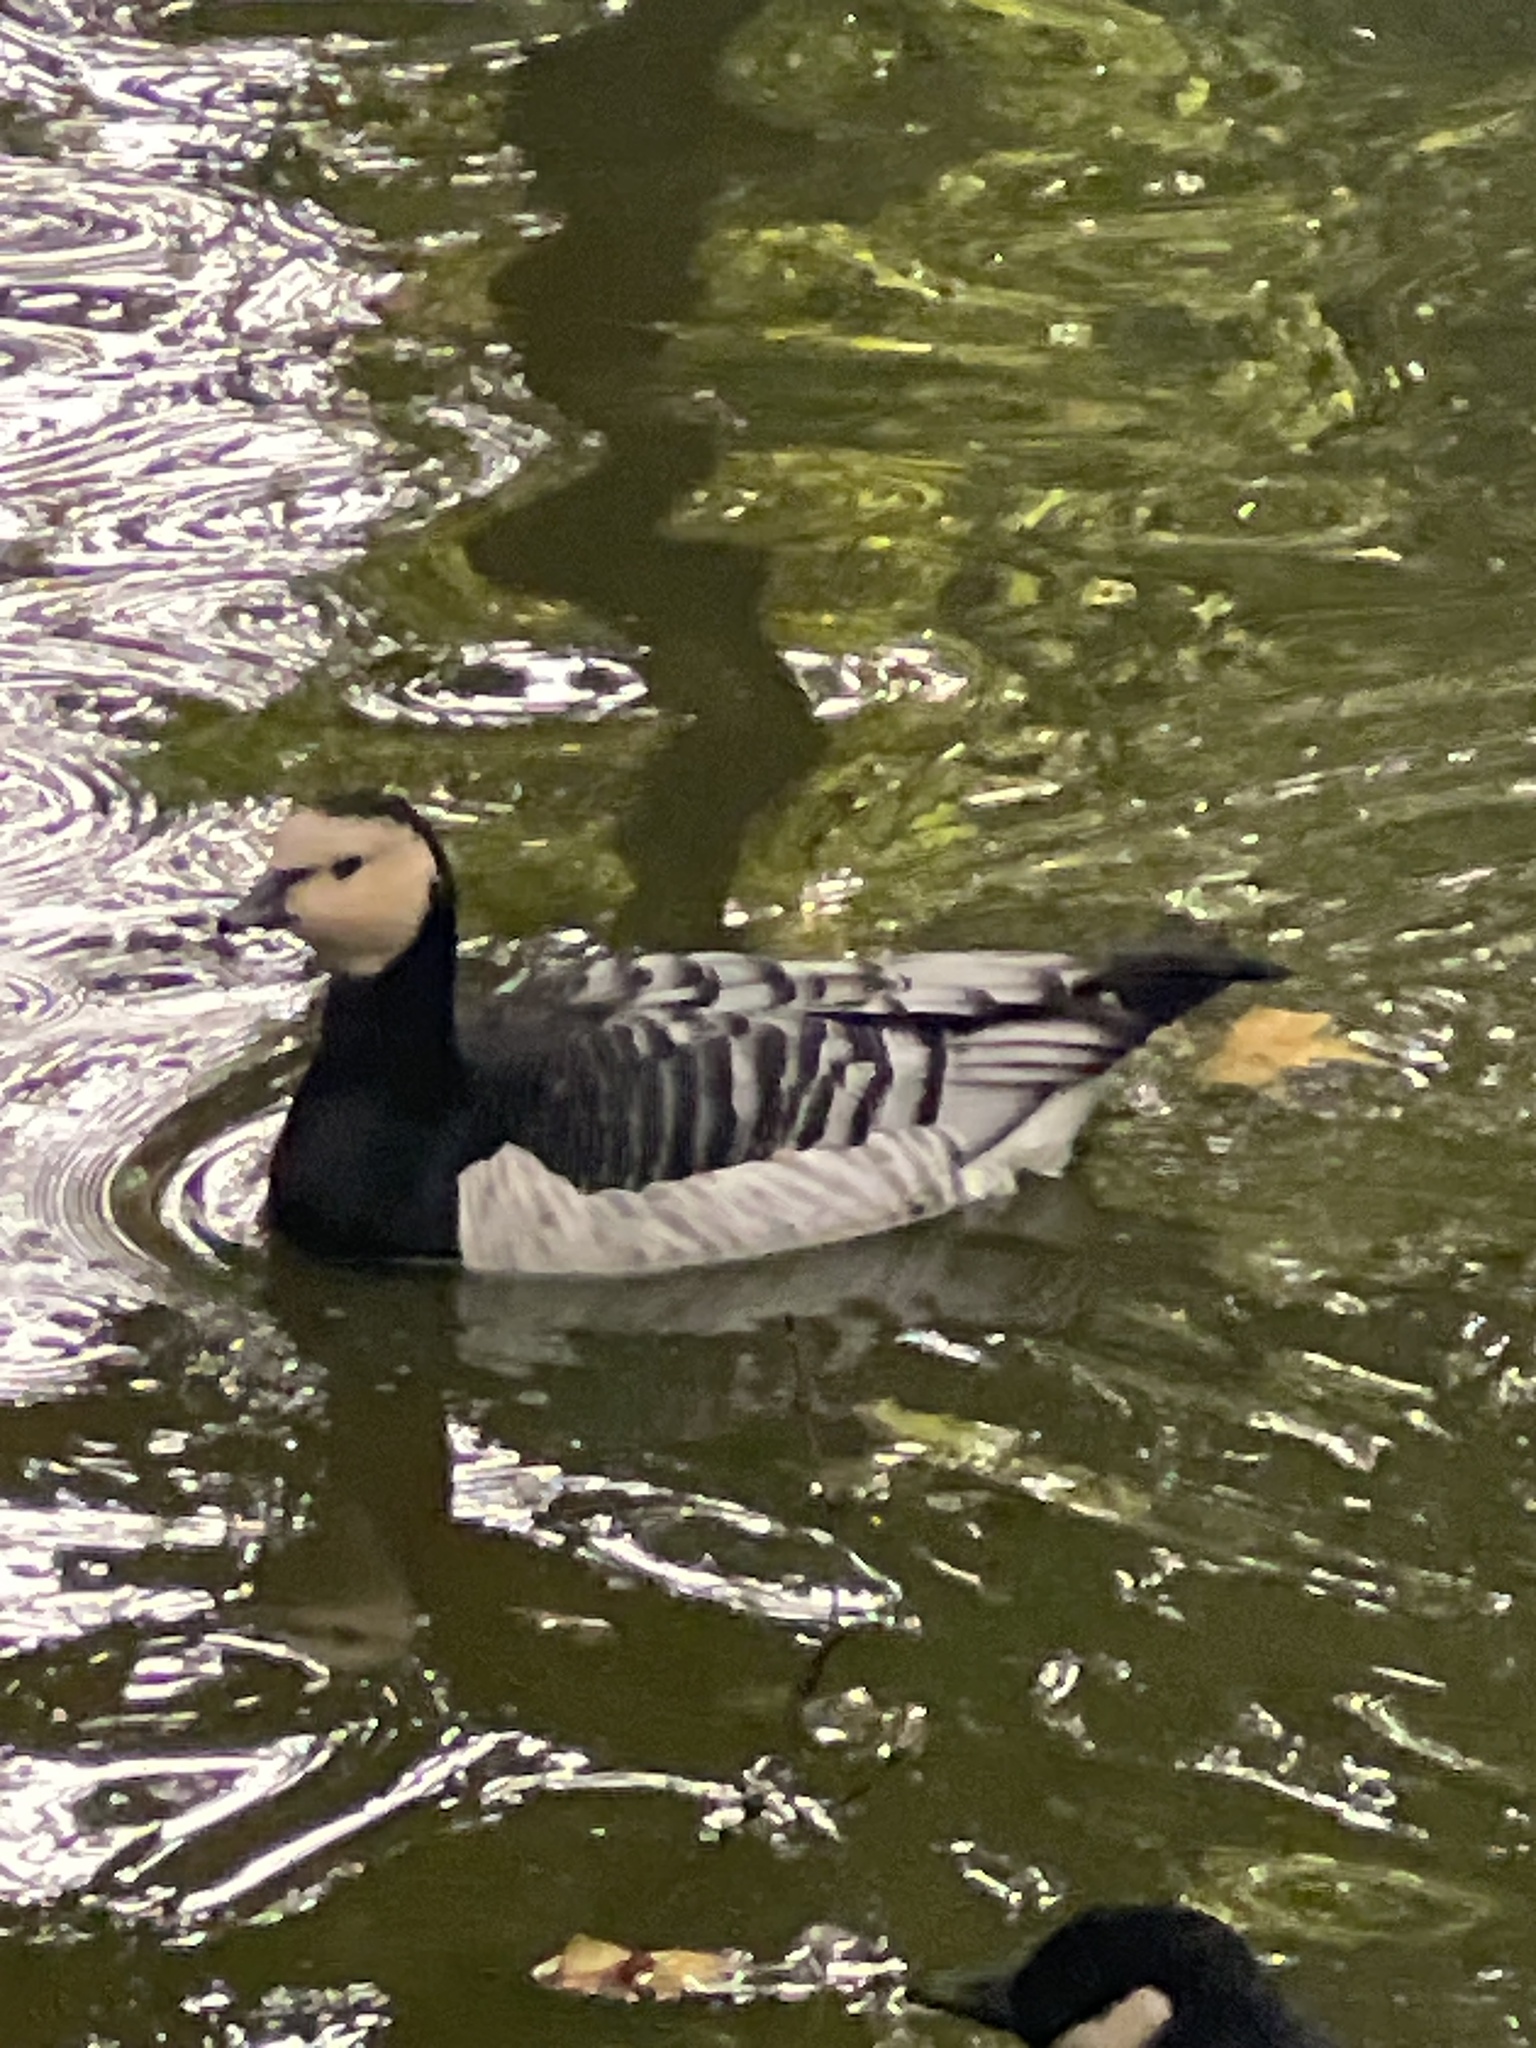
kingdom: Animalia
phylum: Chordata
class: Aves
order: Anseriformes
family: Anatidae
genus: Branta
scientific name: Branta leucopsis
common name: Barnacle goose
